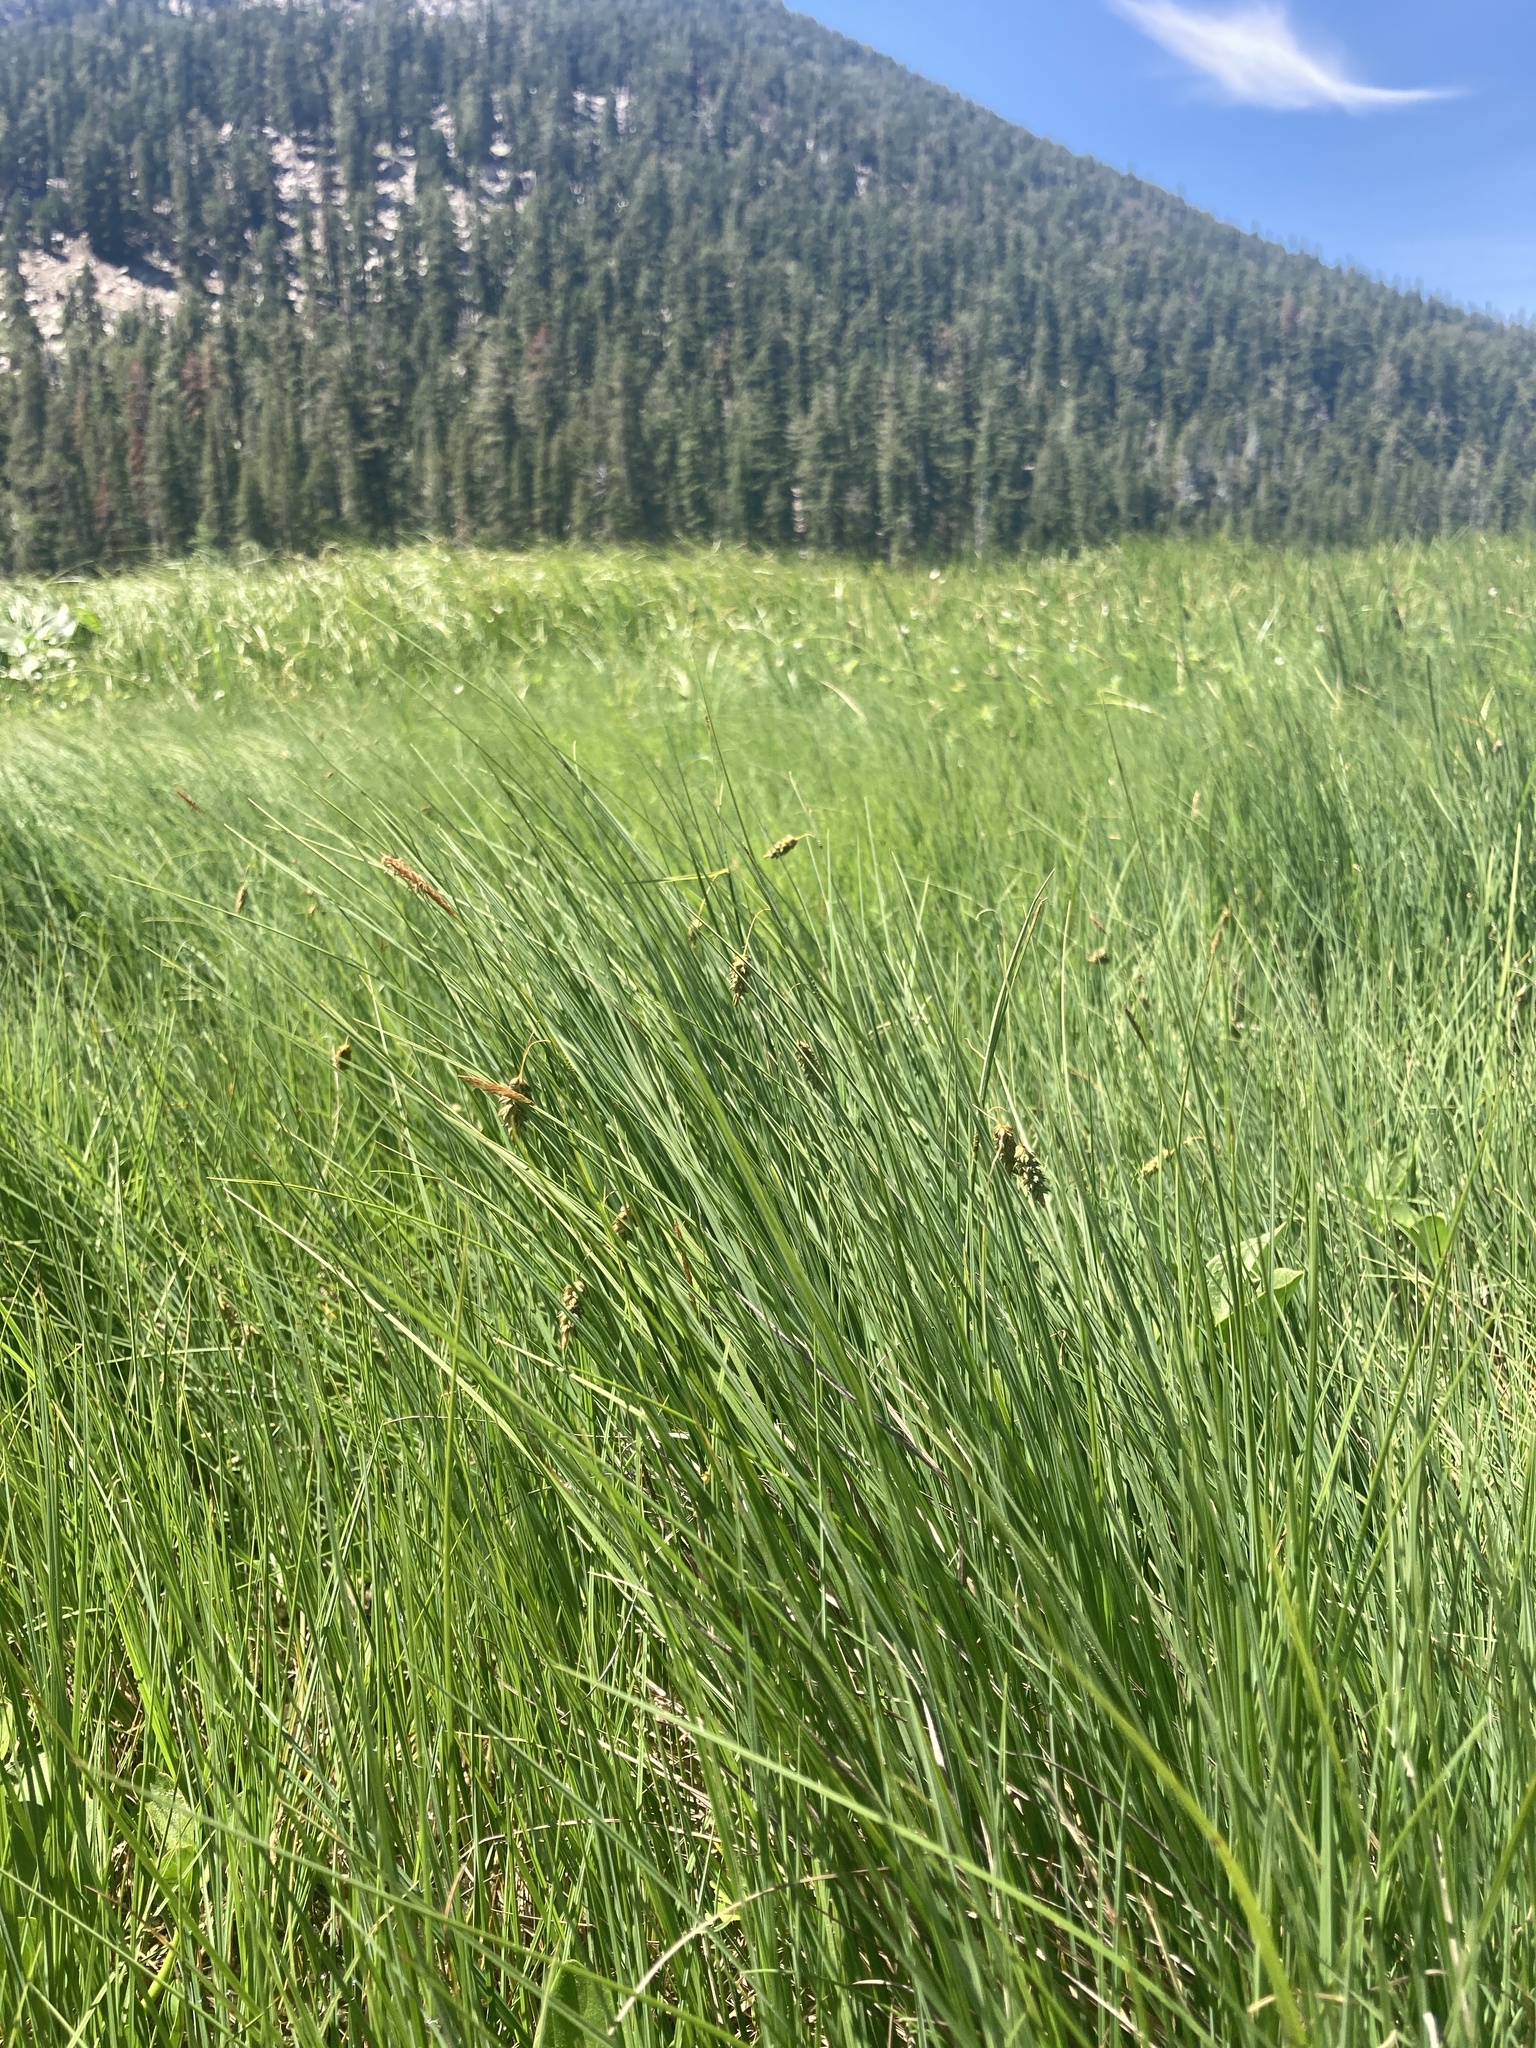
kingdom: Plantae
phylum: Tracheophyta
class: Liliopsida
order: Poales
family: Cyperaceae
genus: Carex
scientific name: Carex limosa
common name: Bog sedge
